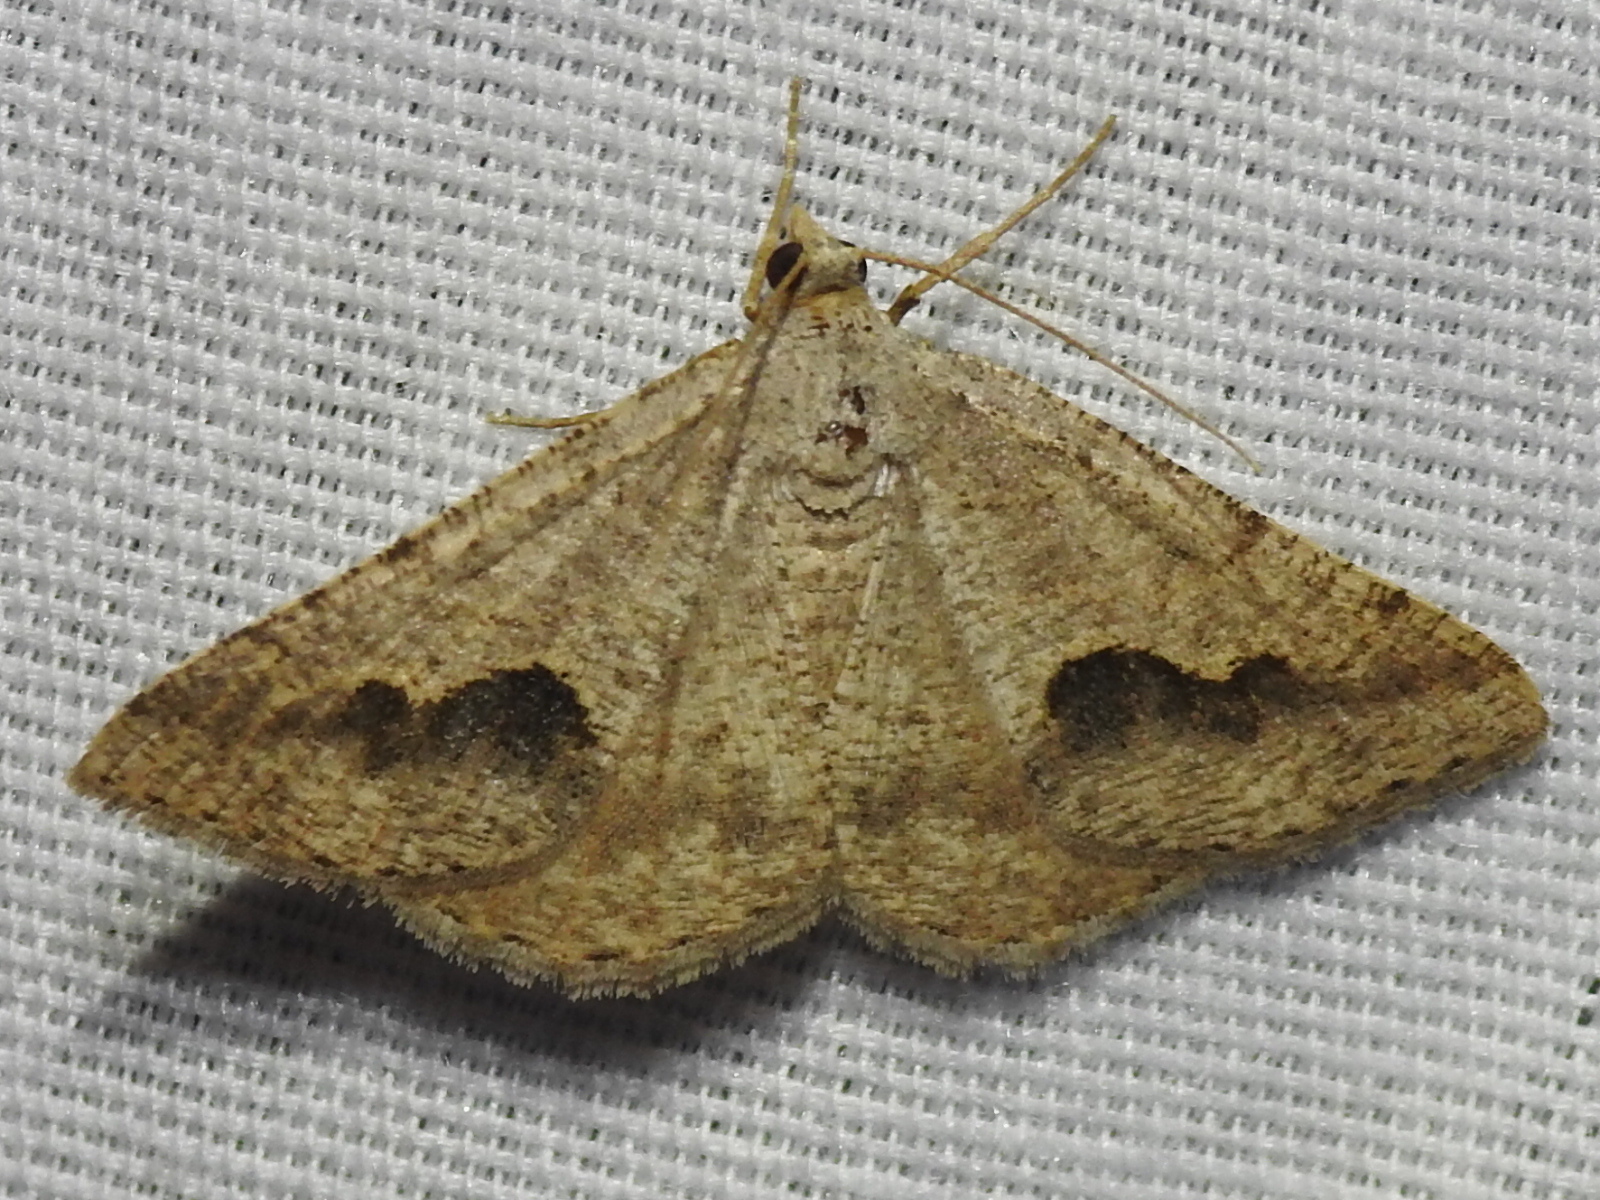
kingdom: Animalia
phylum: Arthropoda
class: Insecta
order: Lepidoptera
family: Geometridae
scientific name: Geometridae
